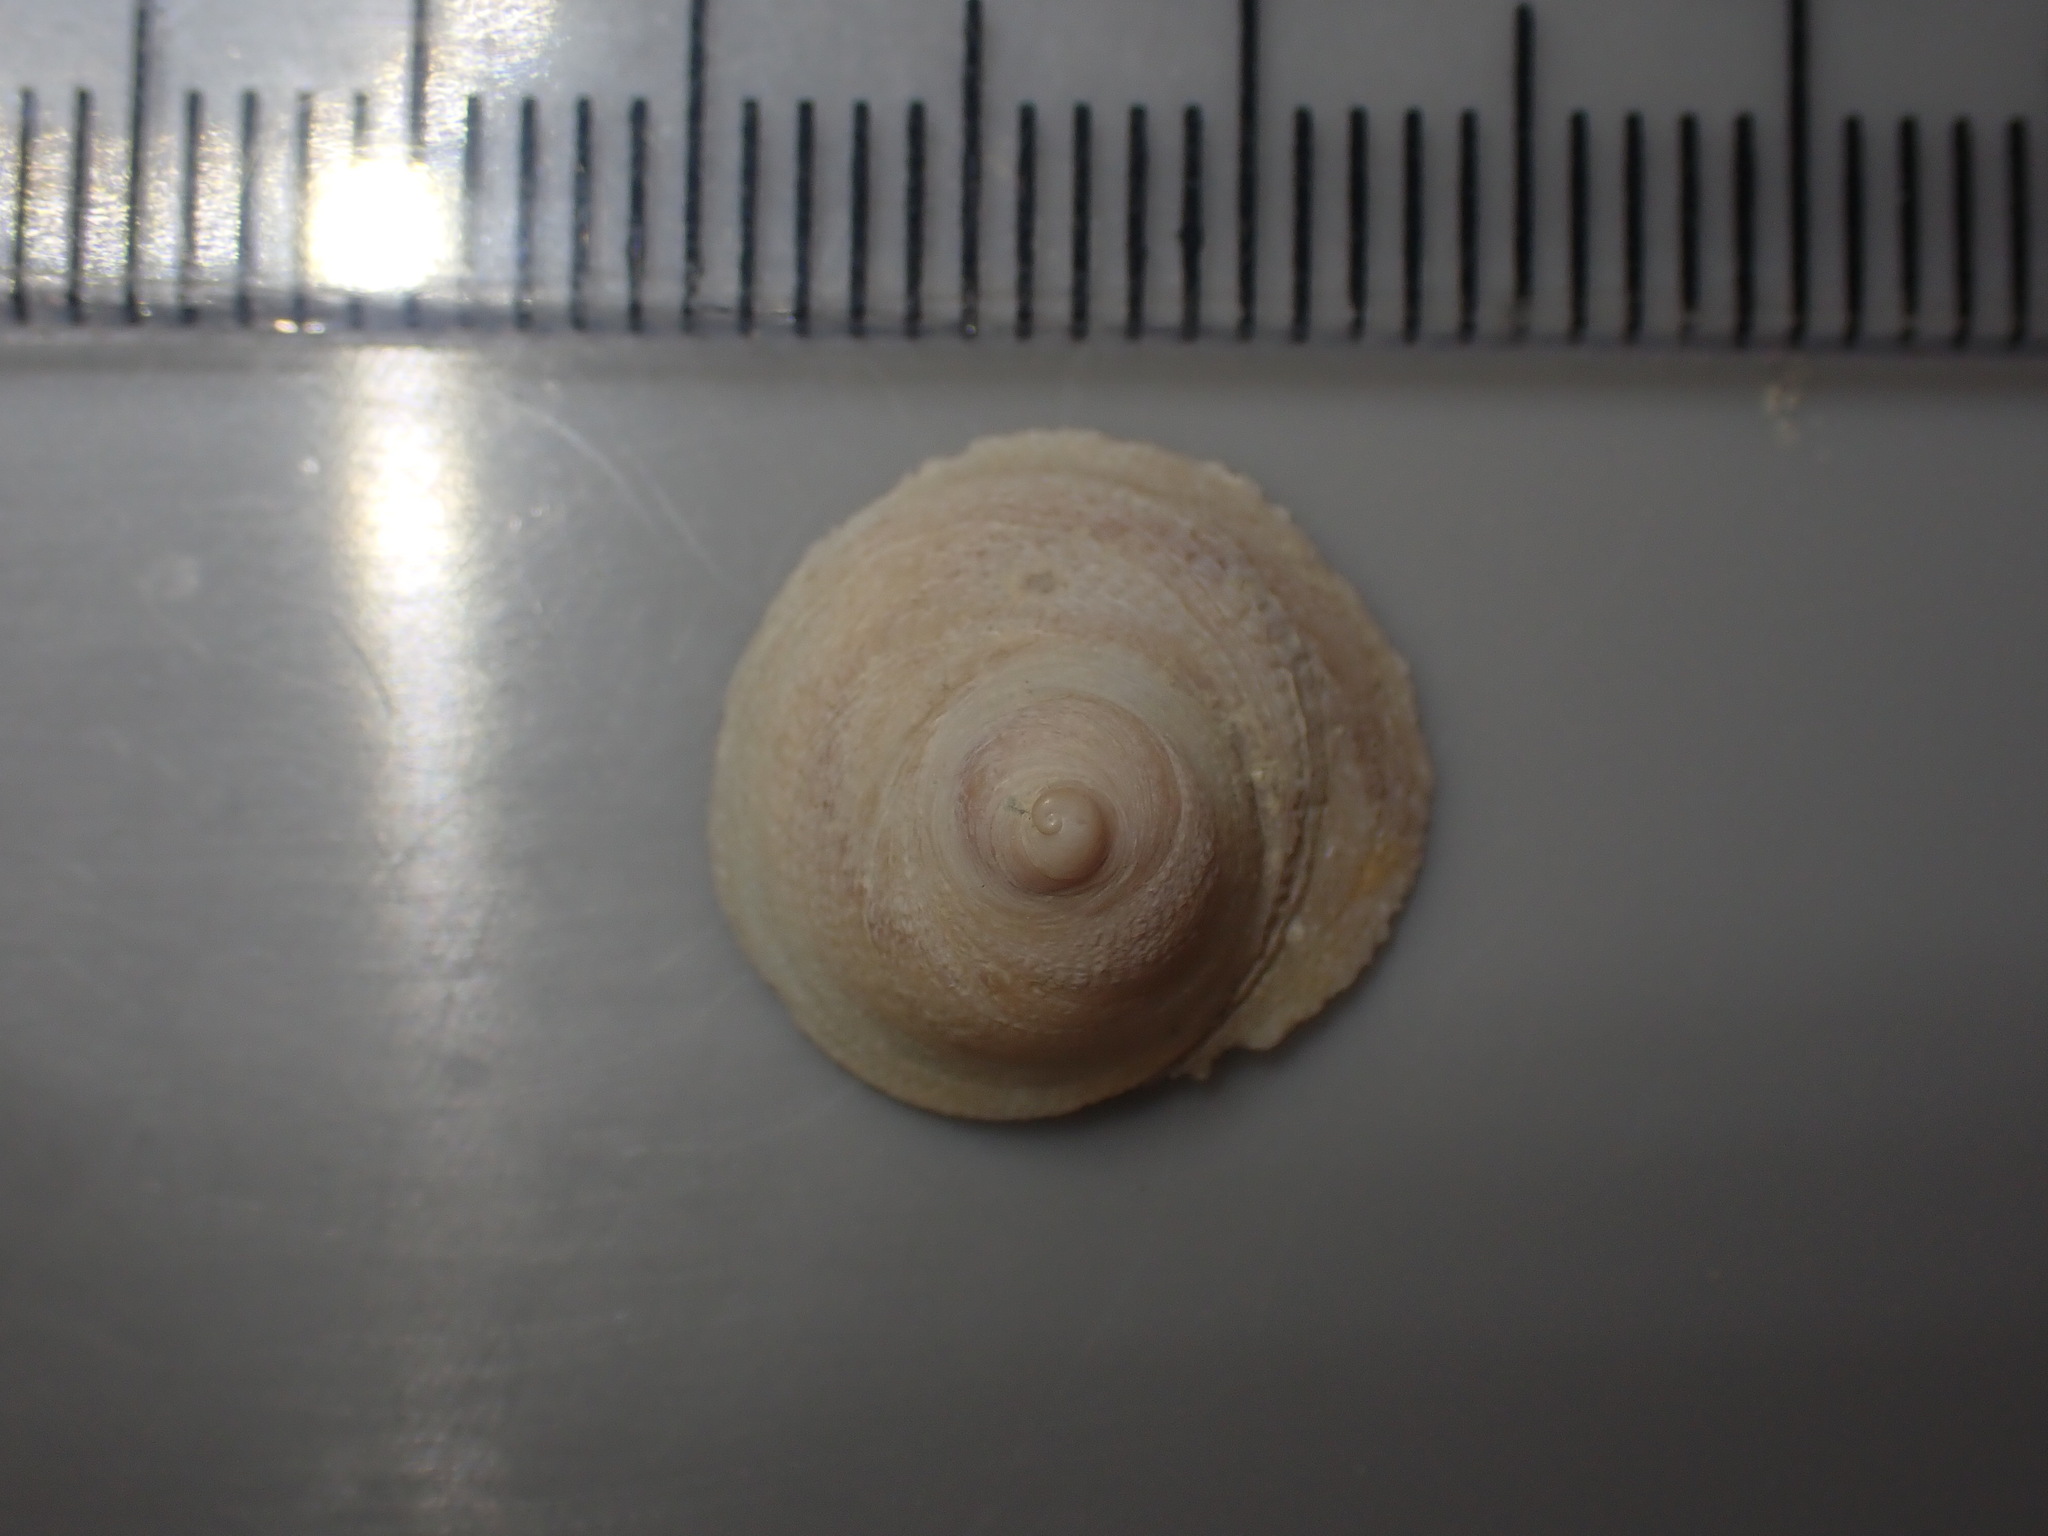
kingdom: Animalia
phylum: Mollusca
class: Gastropoda
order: Littorinimorpha
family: Calyptraeidae
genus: Sigapatella
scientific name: Sigapatella tenuis
